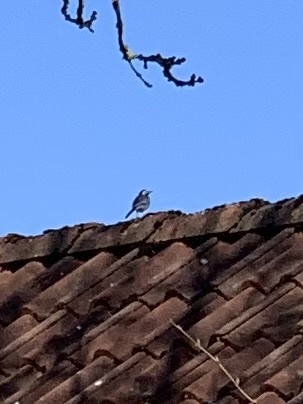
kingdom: Animalia
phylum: Chordata
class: Aves
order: Passeriformes
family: Motacillidae
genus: Motacilla
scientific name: Motacilla alba
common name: White wagtail
